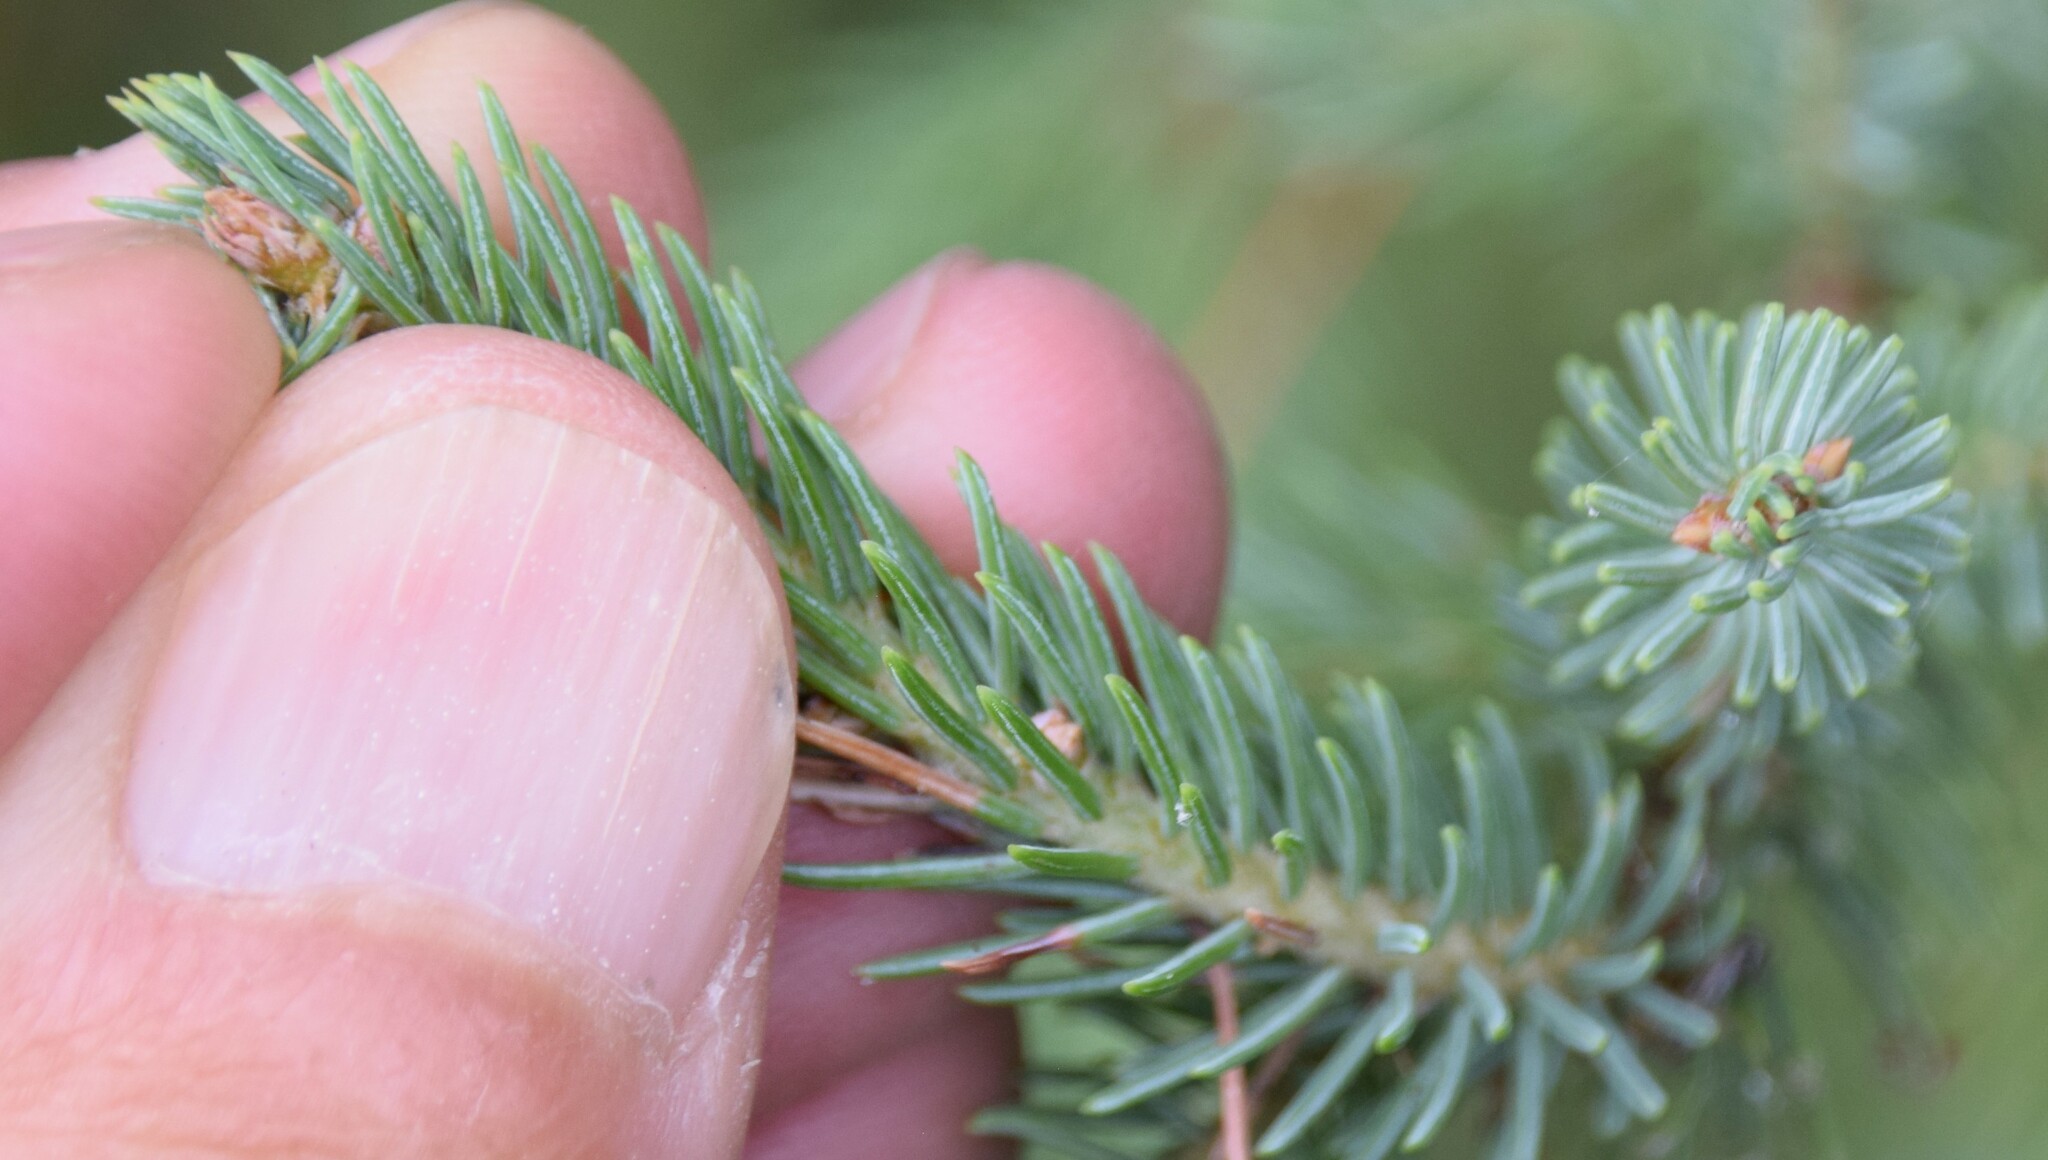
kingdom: Plantae
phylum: Tracheophyta
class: Pinopsida
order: Pinales
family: Pinaceae
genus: Picea
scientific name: Picea mariana
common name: Black spruce
